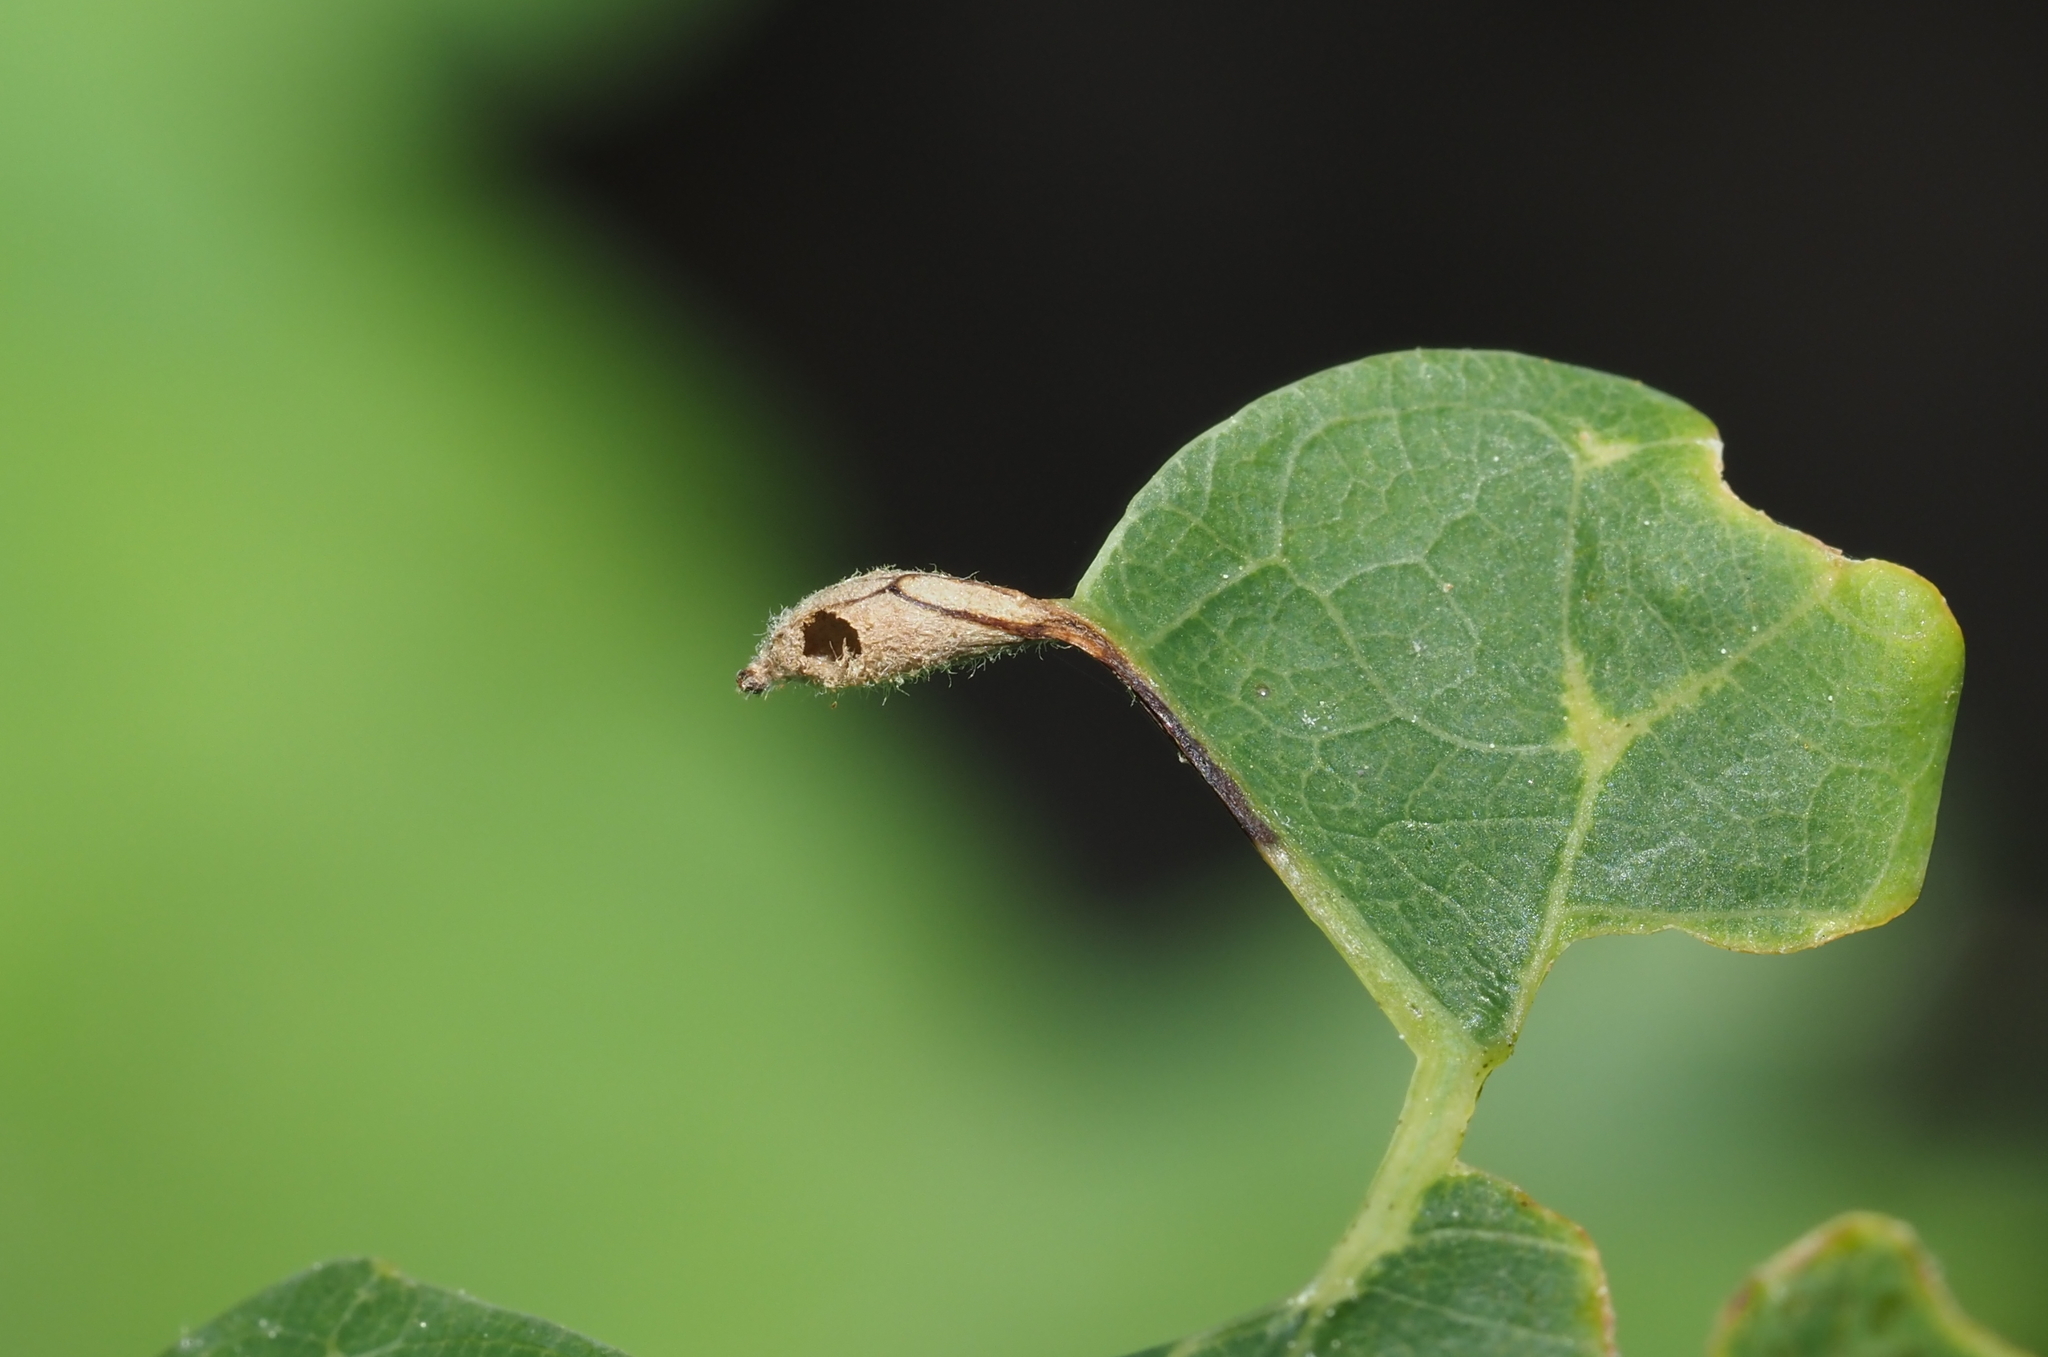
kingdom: Animalia
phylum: Arthropoda
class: Insecta
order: Hymenoptera
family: Cynipidae
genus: Andricus
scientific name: Andricus
